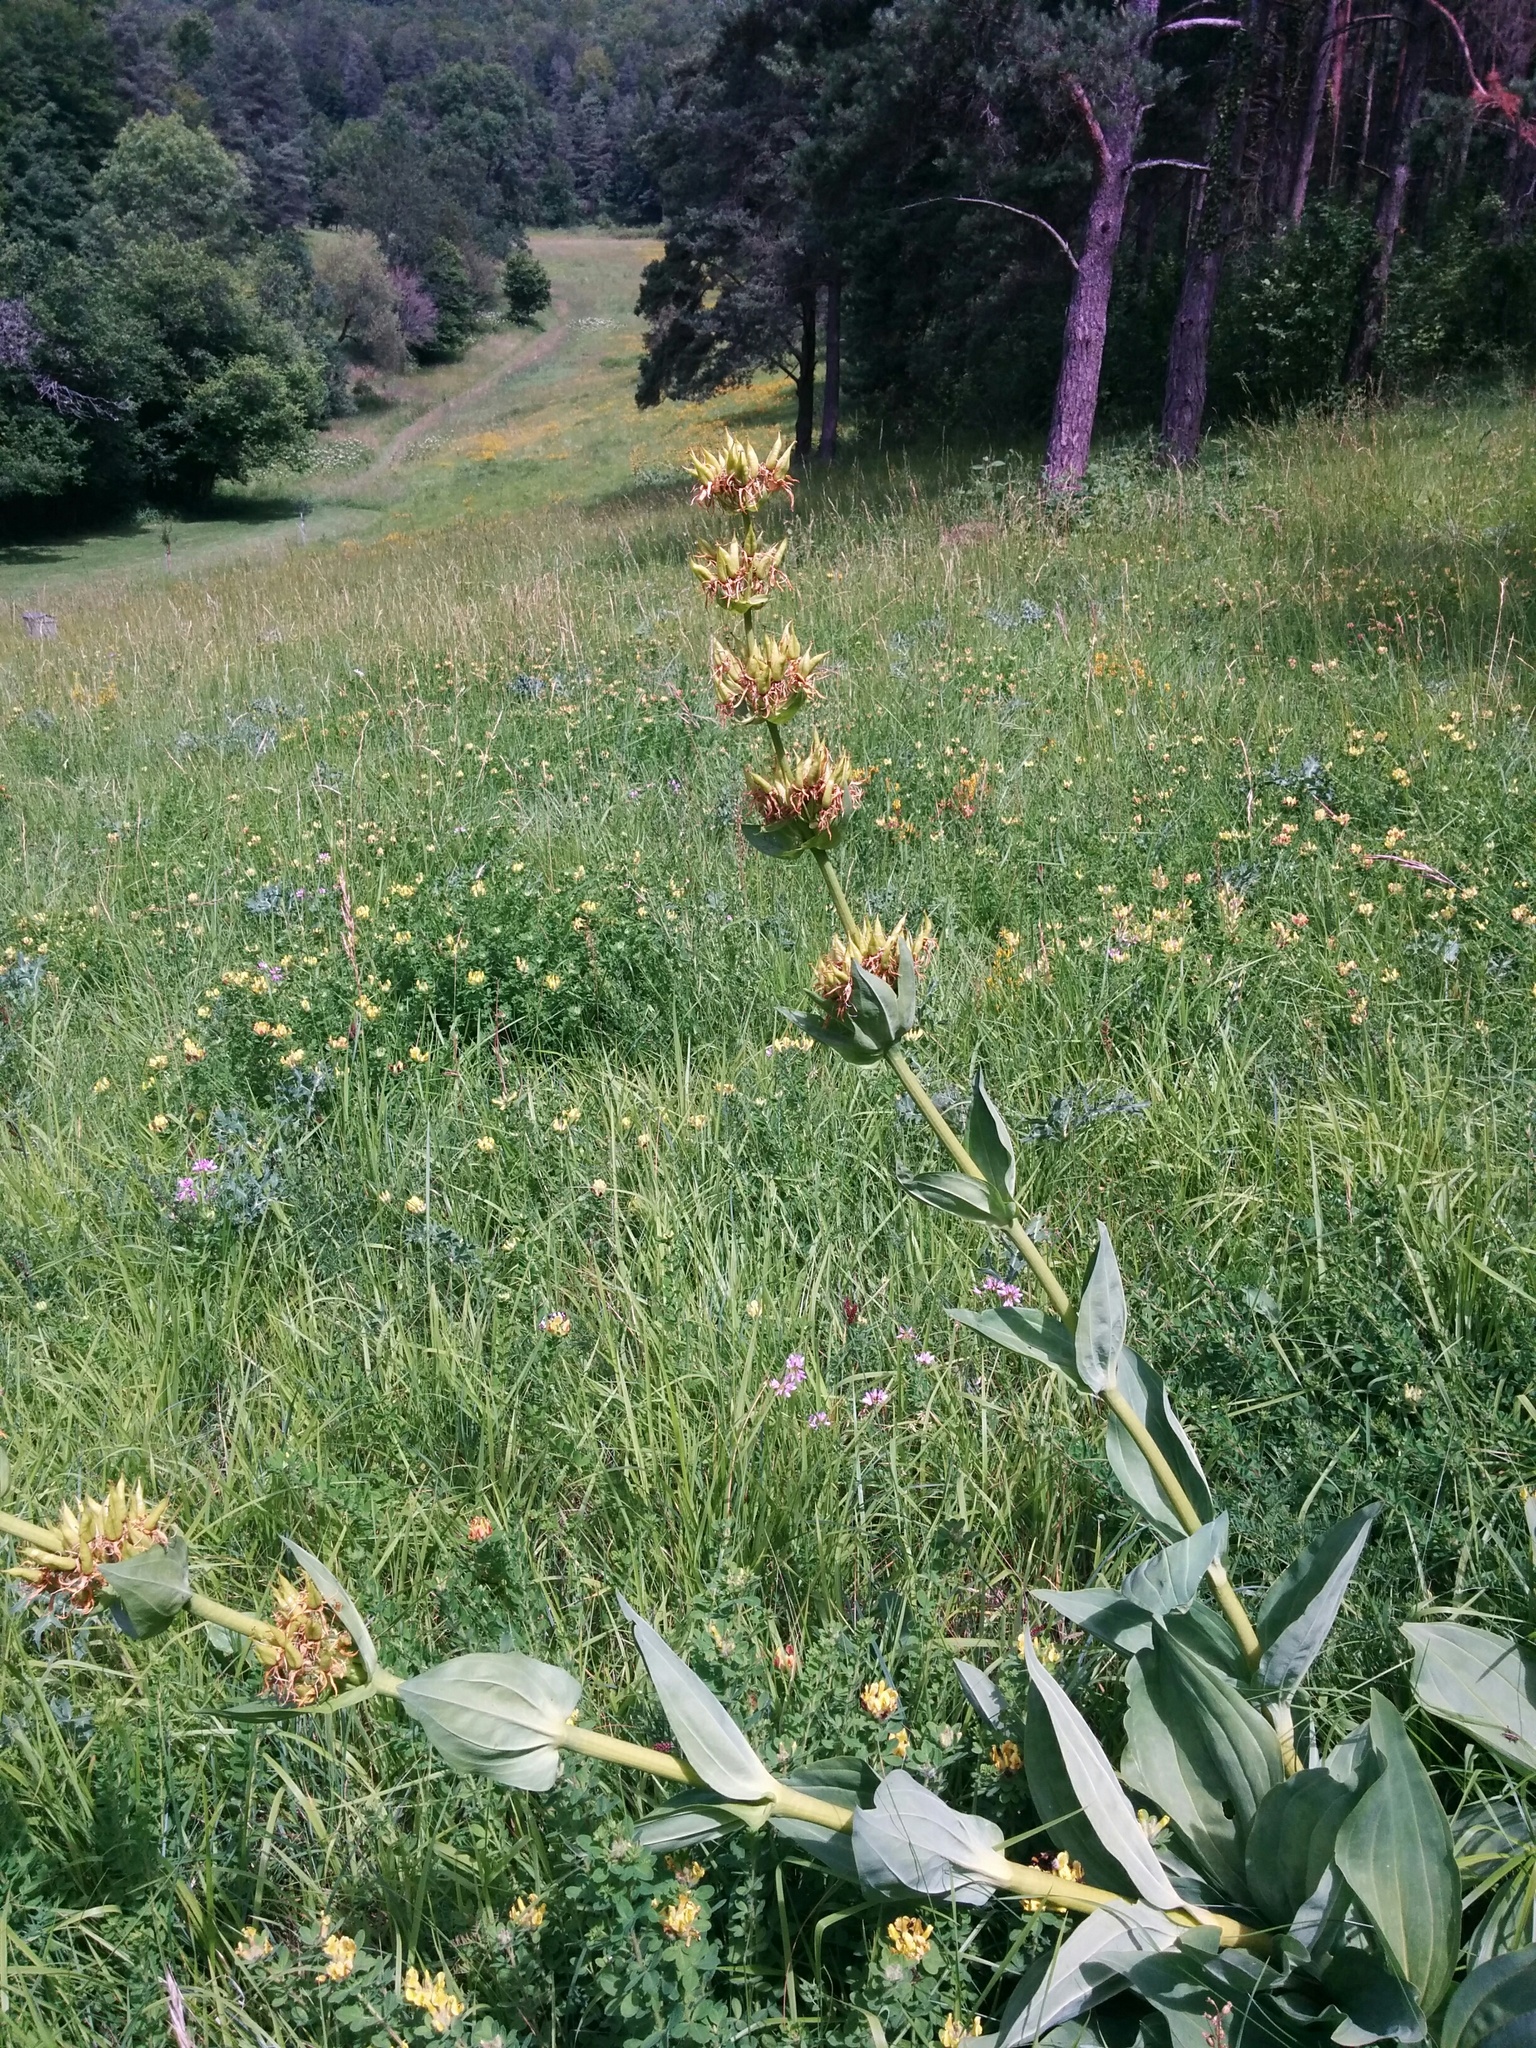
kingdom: Plantae
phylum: Tracheophyta
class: Magnoliopsida
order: Gentianales
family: Gentianaceae
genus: Gentiana
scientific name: Gentiana lutea
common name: Great yellow gentian
